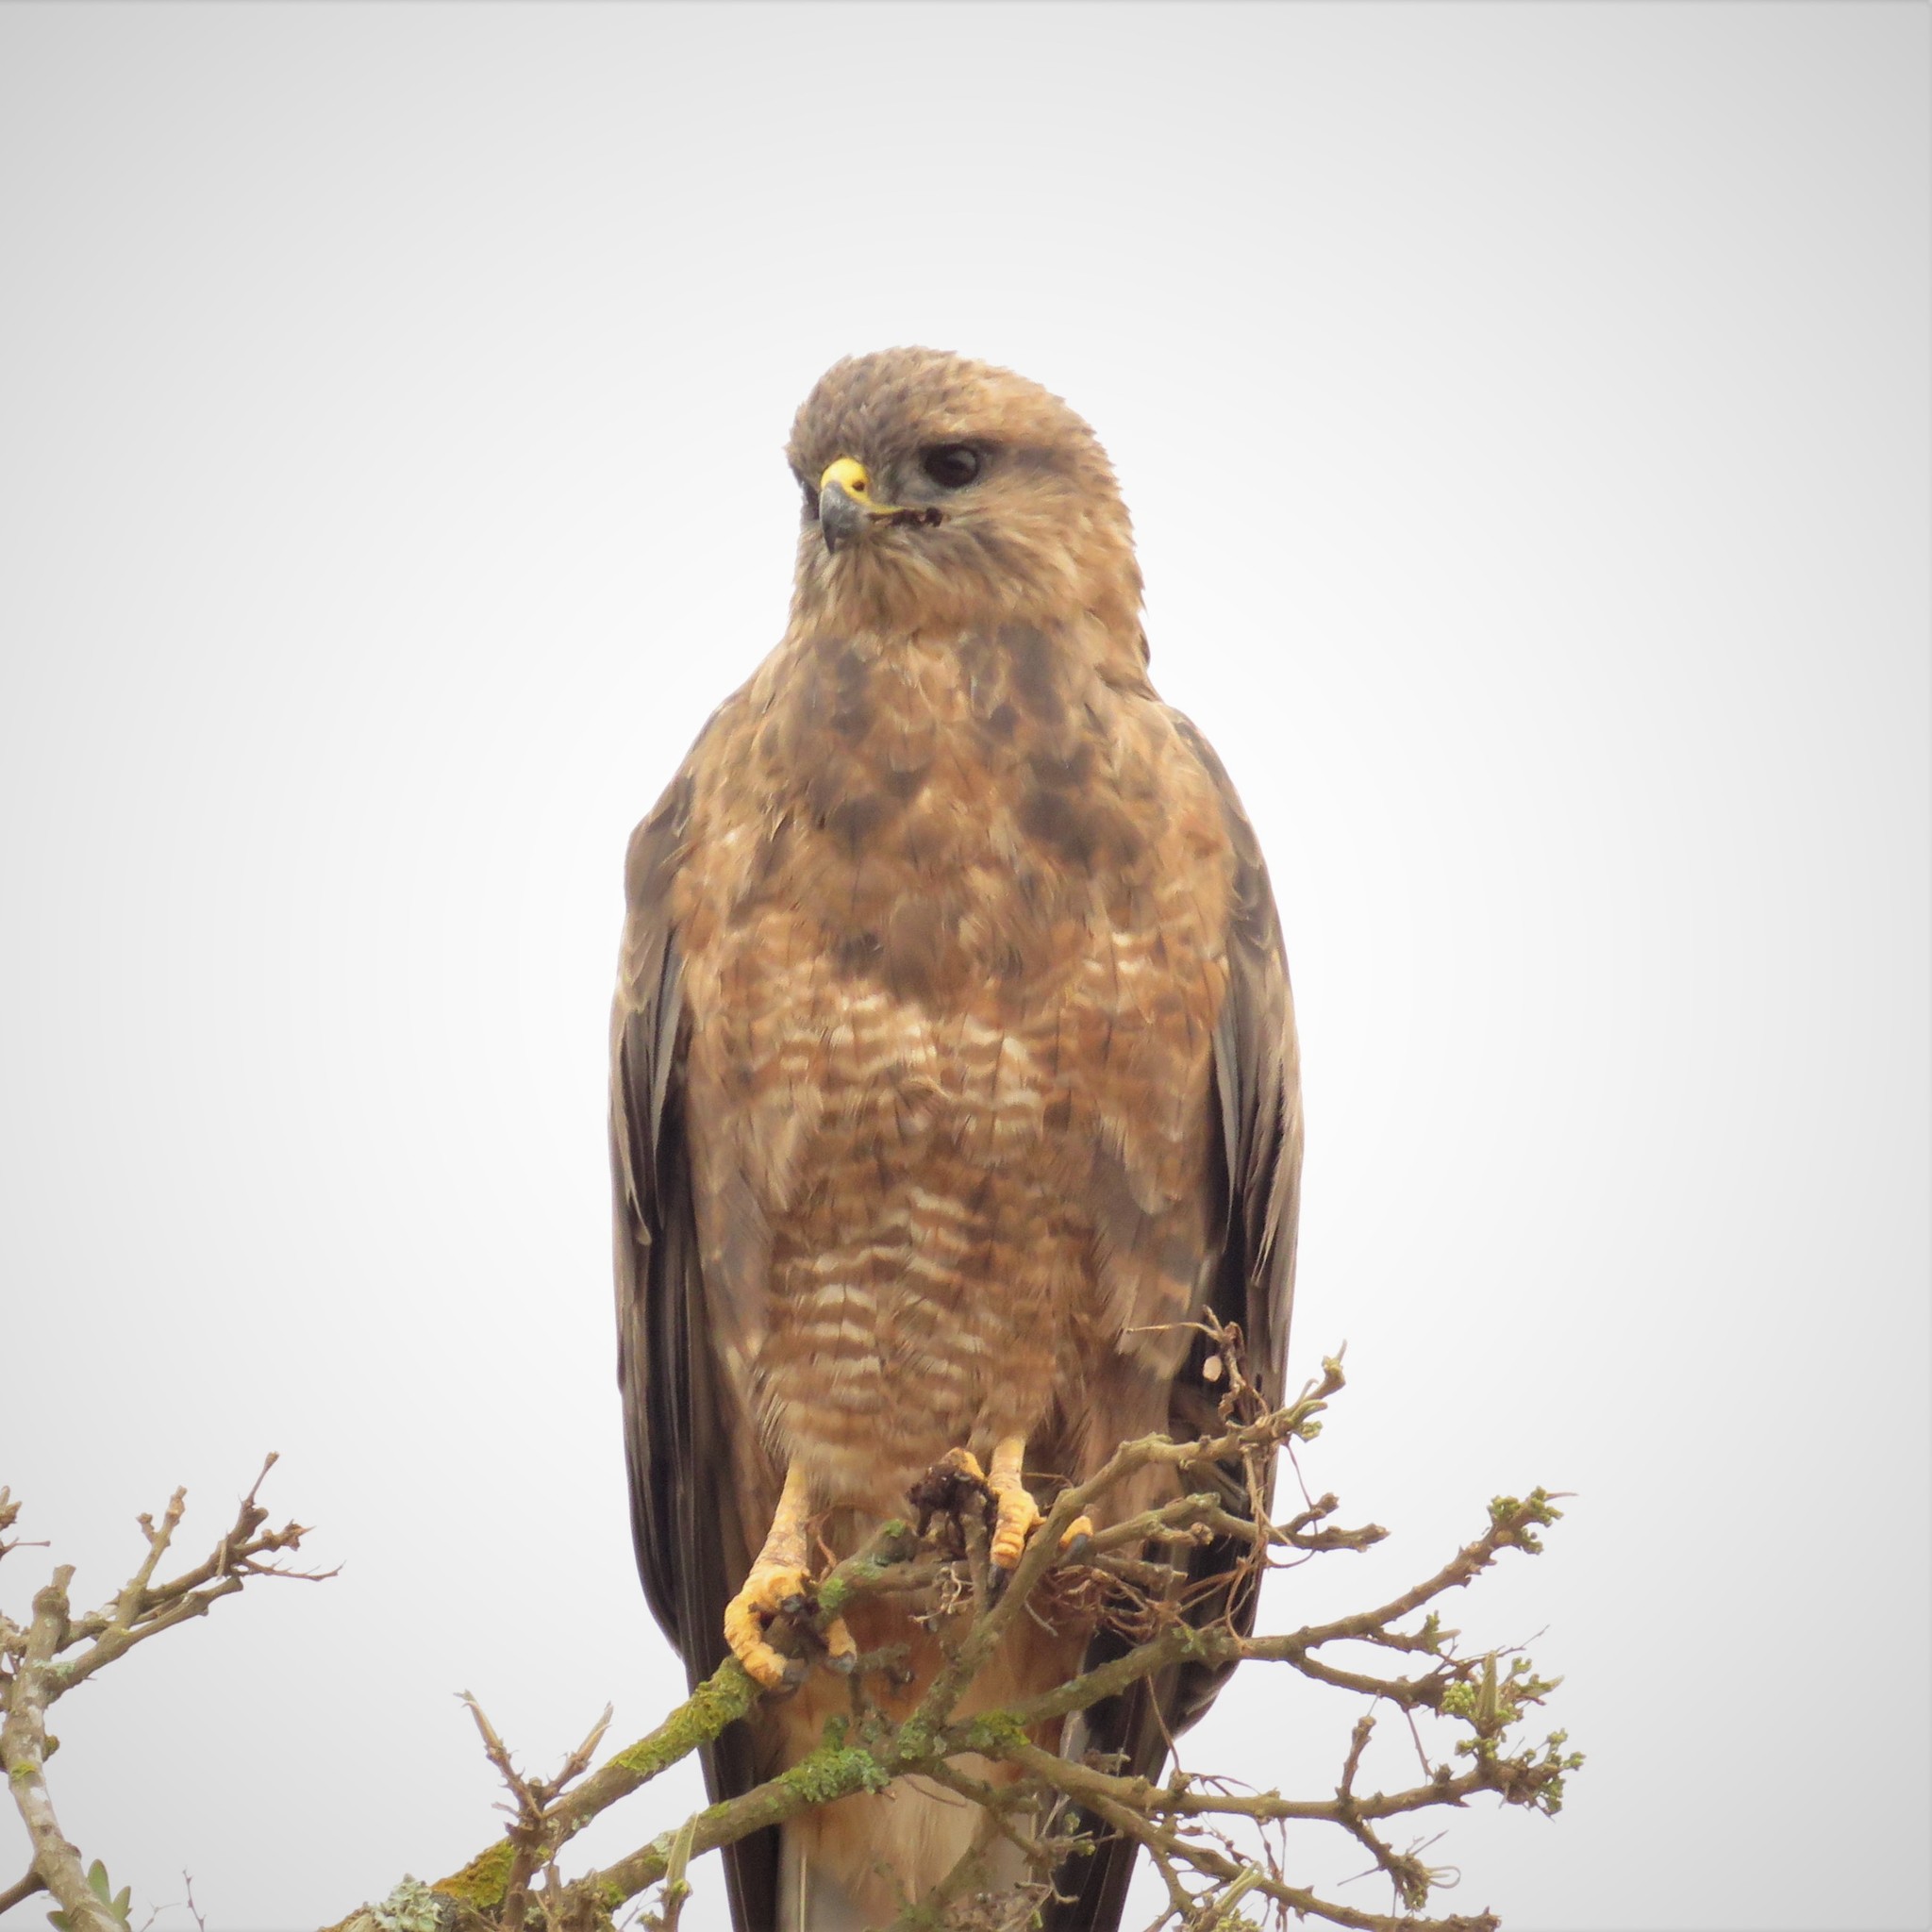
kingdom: Animalia
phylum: Chordata
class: Aves
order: Accipitriformes
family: Accipitridae
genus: Buteo
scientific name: Buteo buteo
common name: Common buzzard
